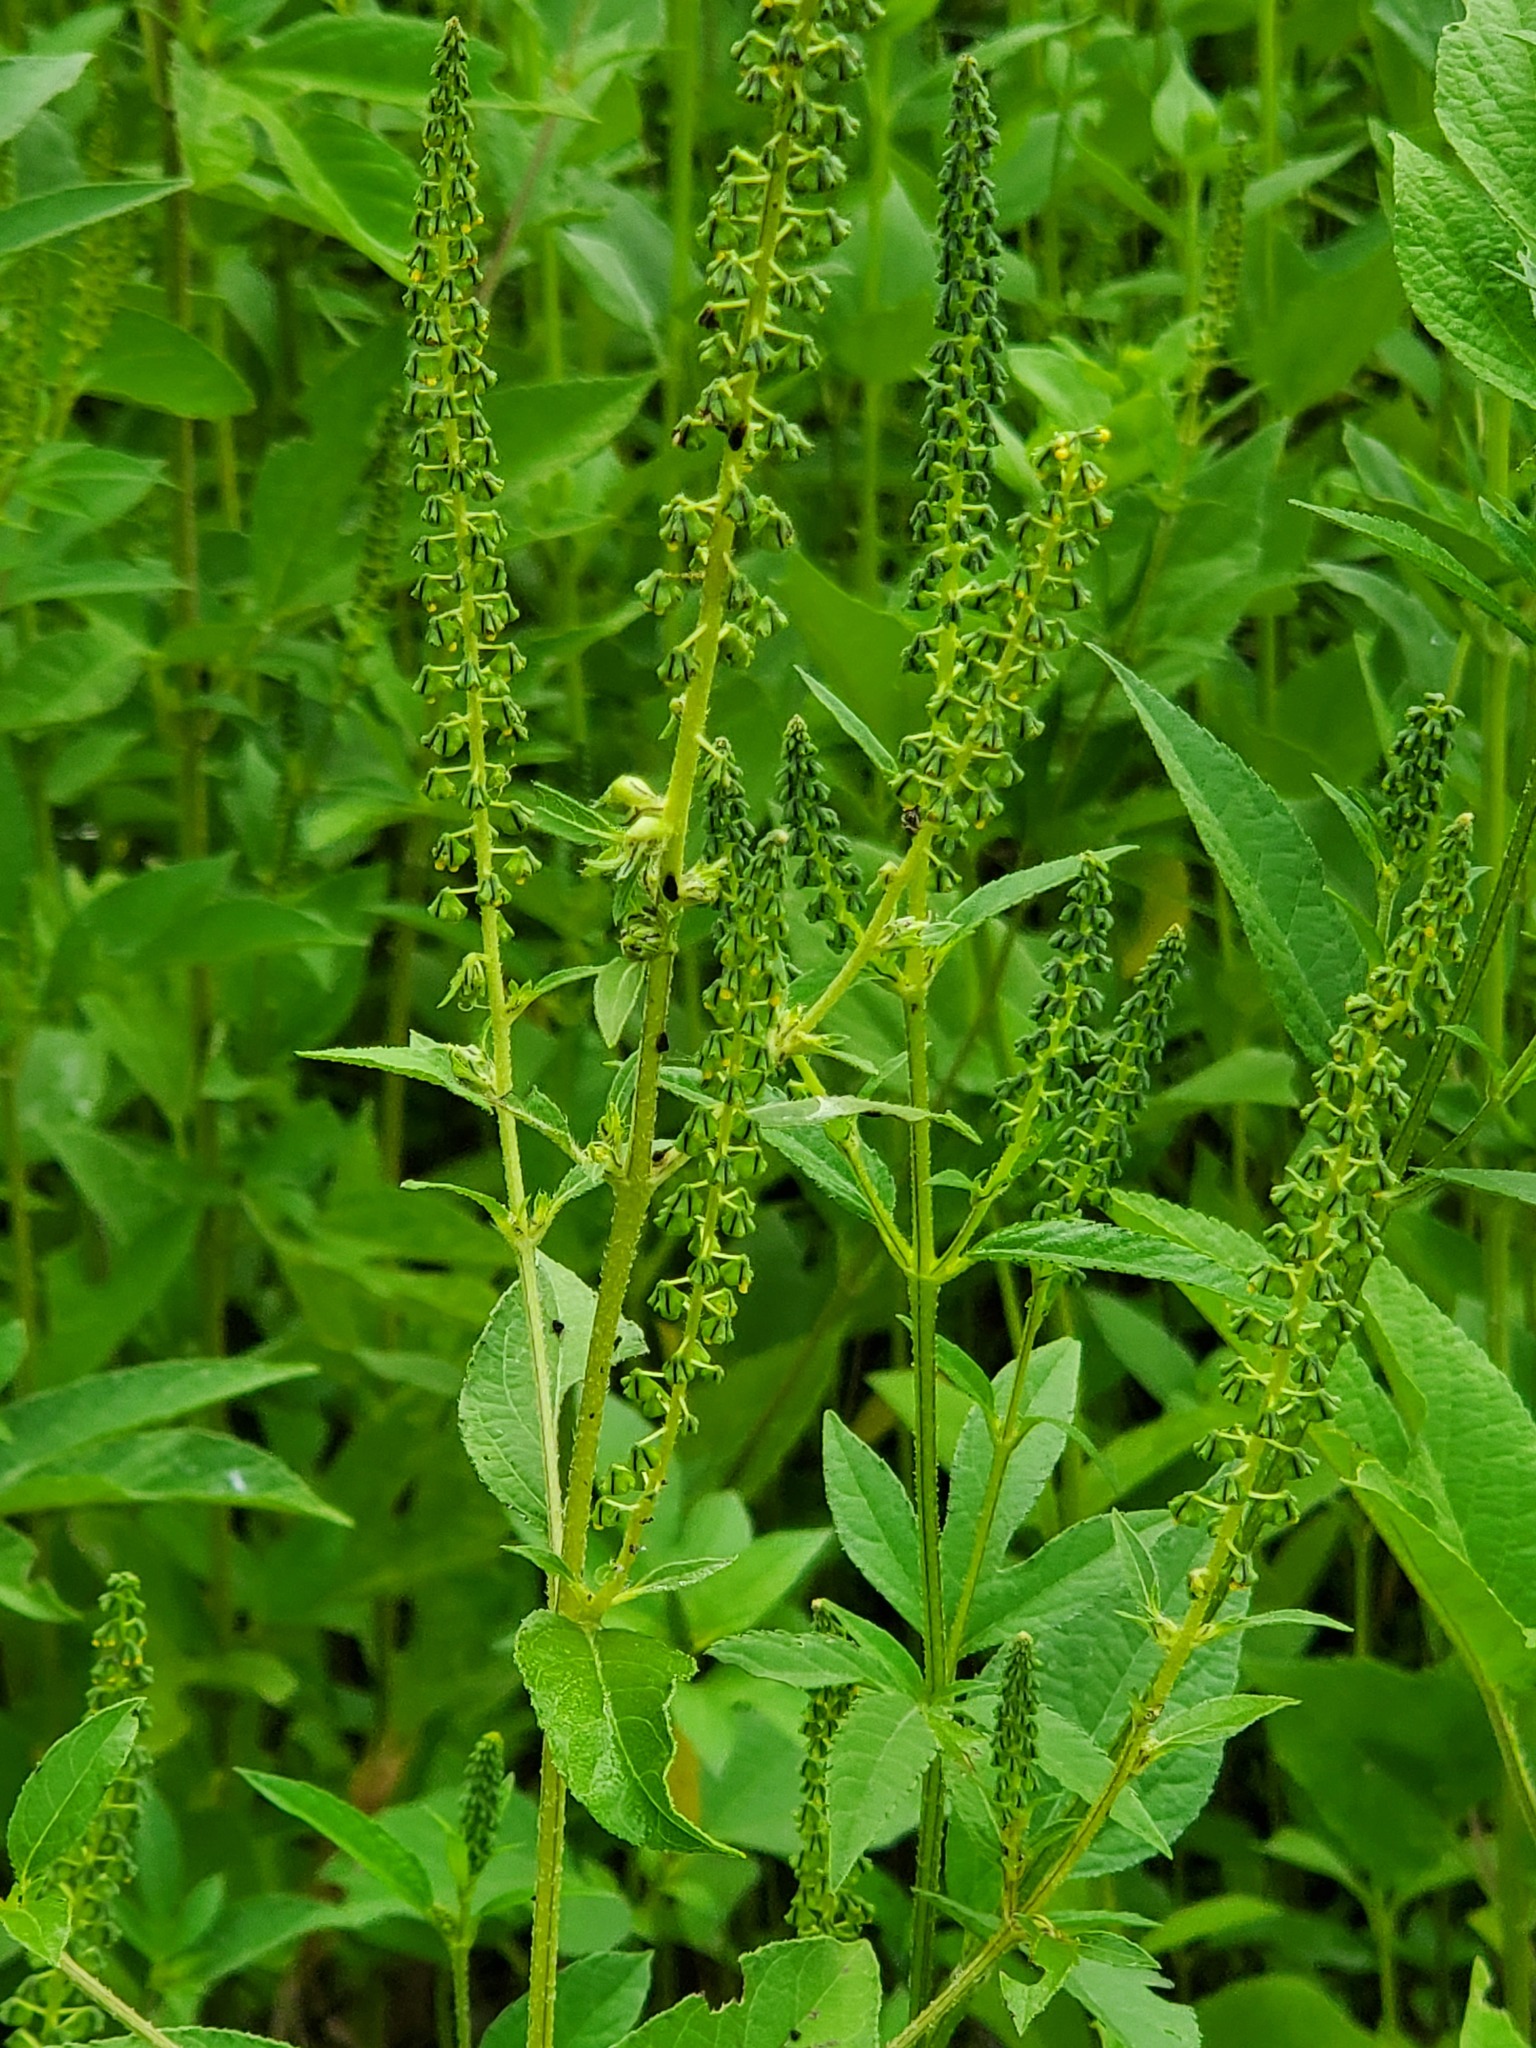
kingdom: Plantae
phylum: Tracheophyta
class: Magnoliopsida
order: Asterales
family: Asteraceae
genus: Ambrosia
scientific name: Ambrosia trifida
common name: Giant ragweed
